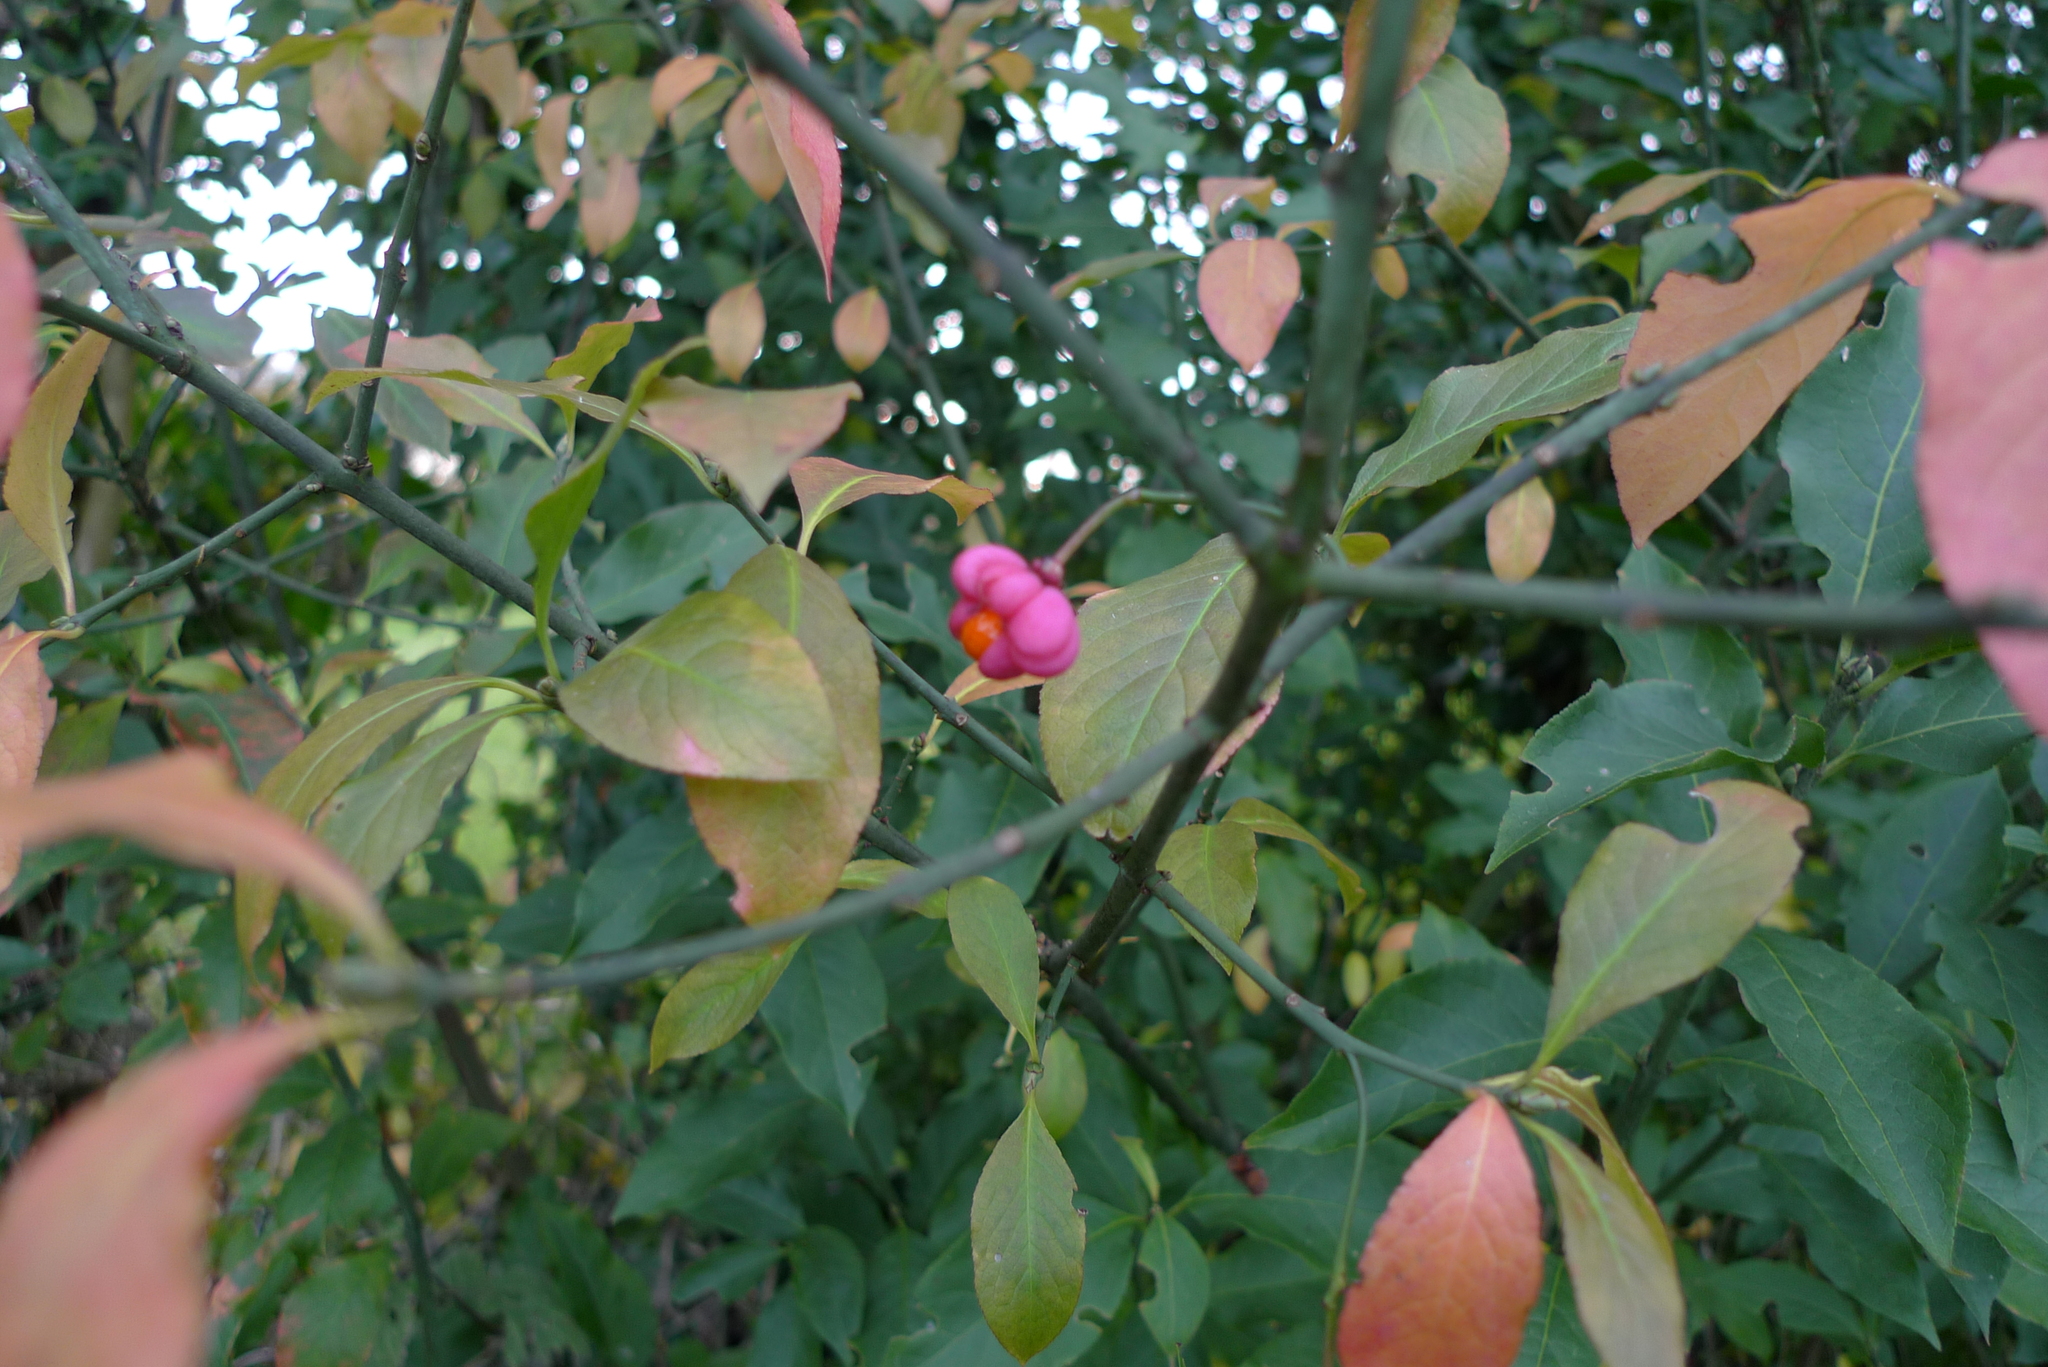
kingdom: Animalia
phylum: Arthropoda
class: Arachnida
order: Trombidiformes
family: Eriophyidae
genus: Stenacis
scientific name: Stenacis evonymi
